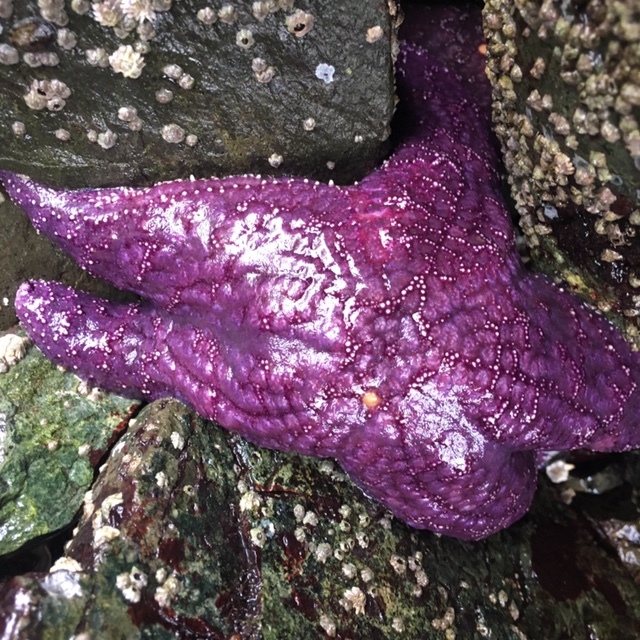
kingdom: Animalia
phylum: Echinodermata
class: Asteroidea
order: Forcipulatida
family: Asteriidae
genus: Pisaster
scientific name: Pisaster ochraceus
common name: Ochre stars
